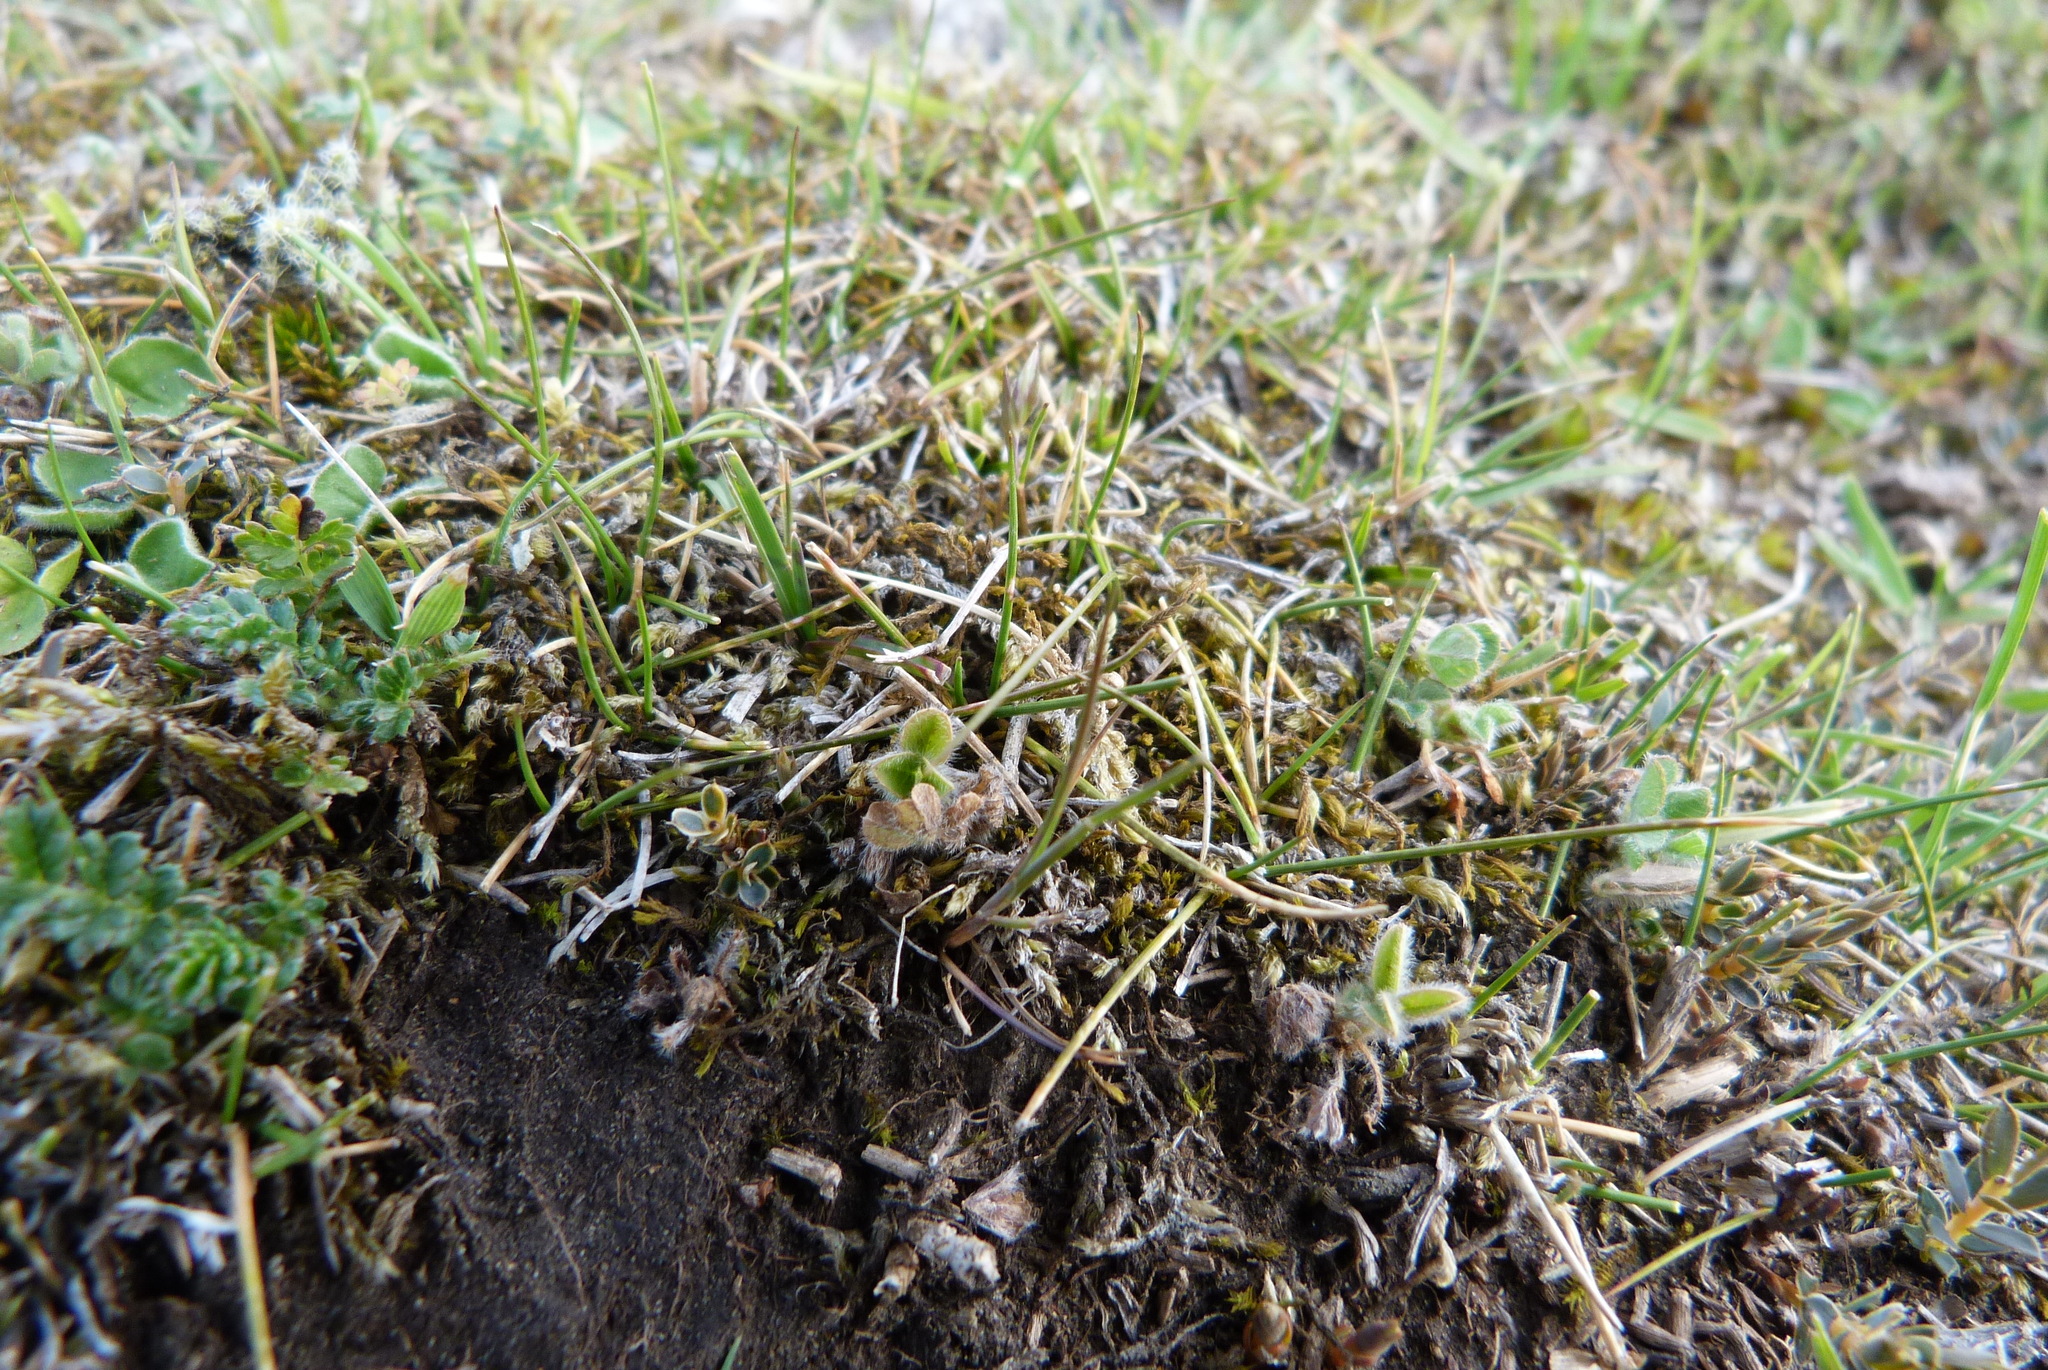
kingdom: Plantae
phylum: Tracheophyta
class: Liliopsida
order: Poales
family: Poaceae
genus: Rytidosperma
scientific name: Rytidosperma exiguum
